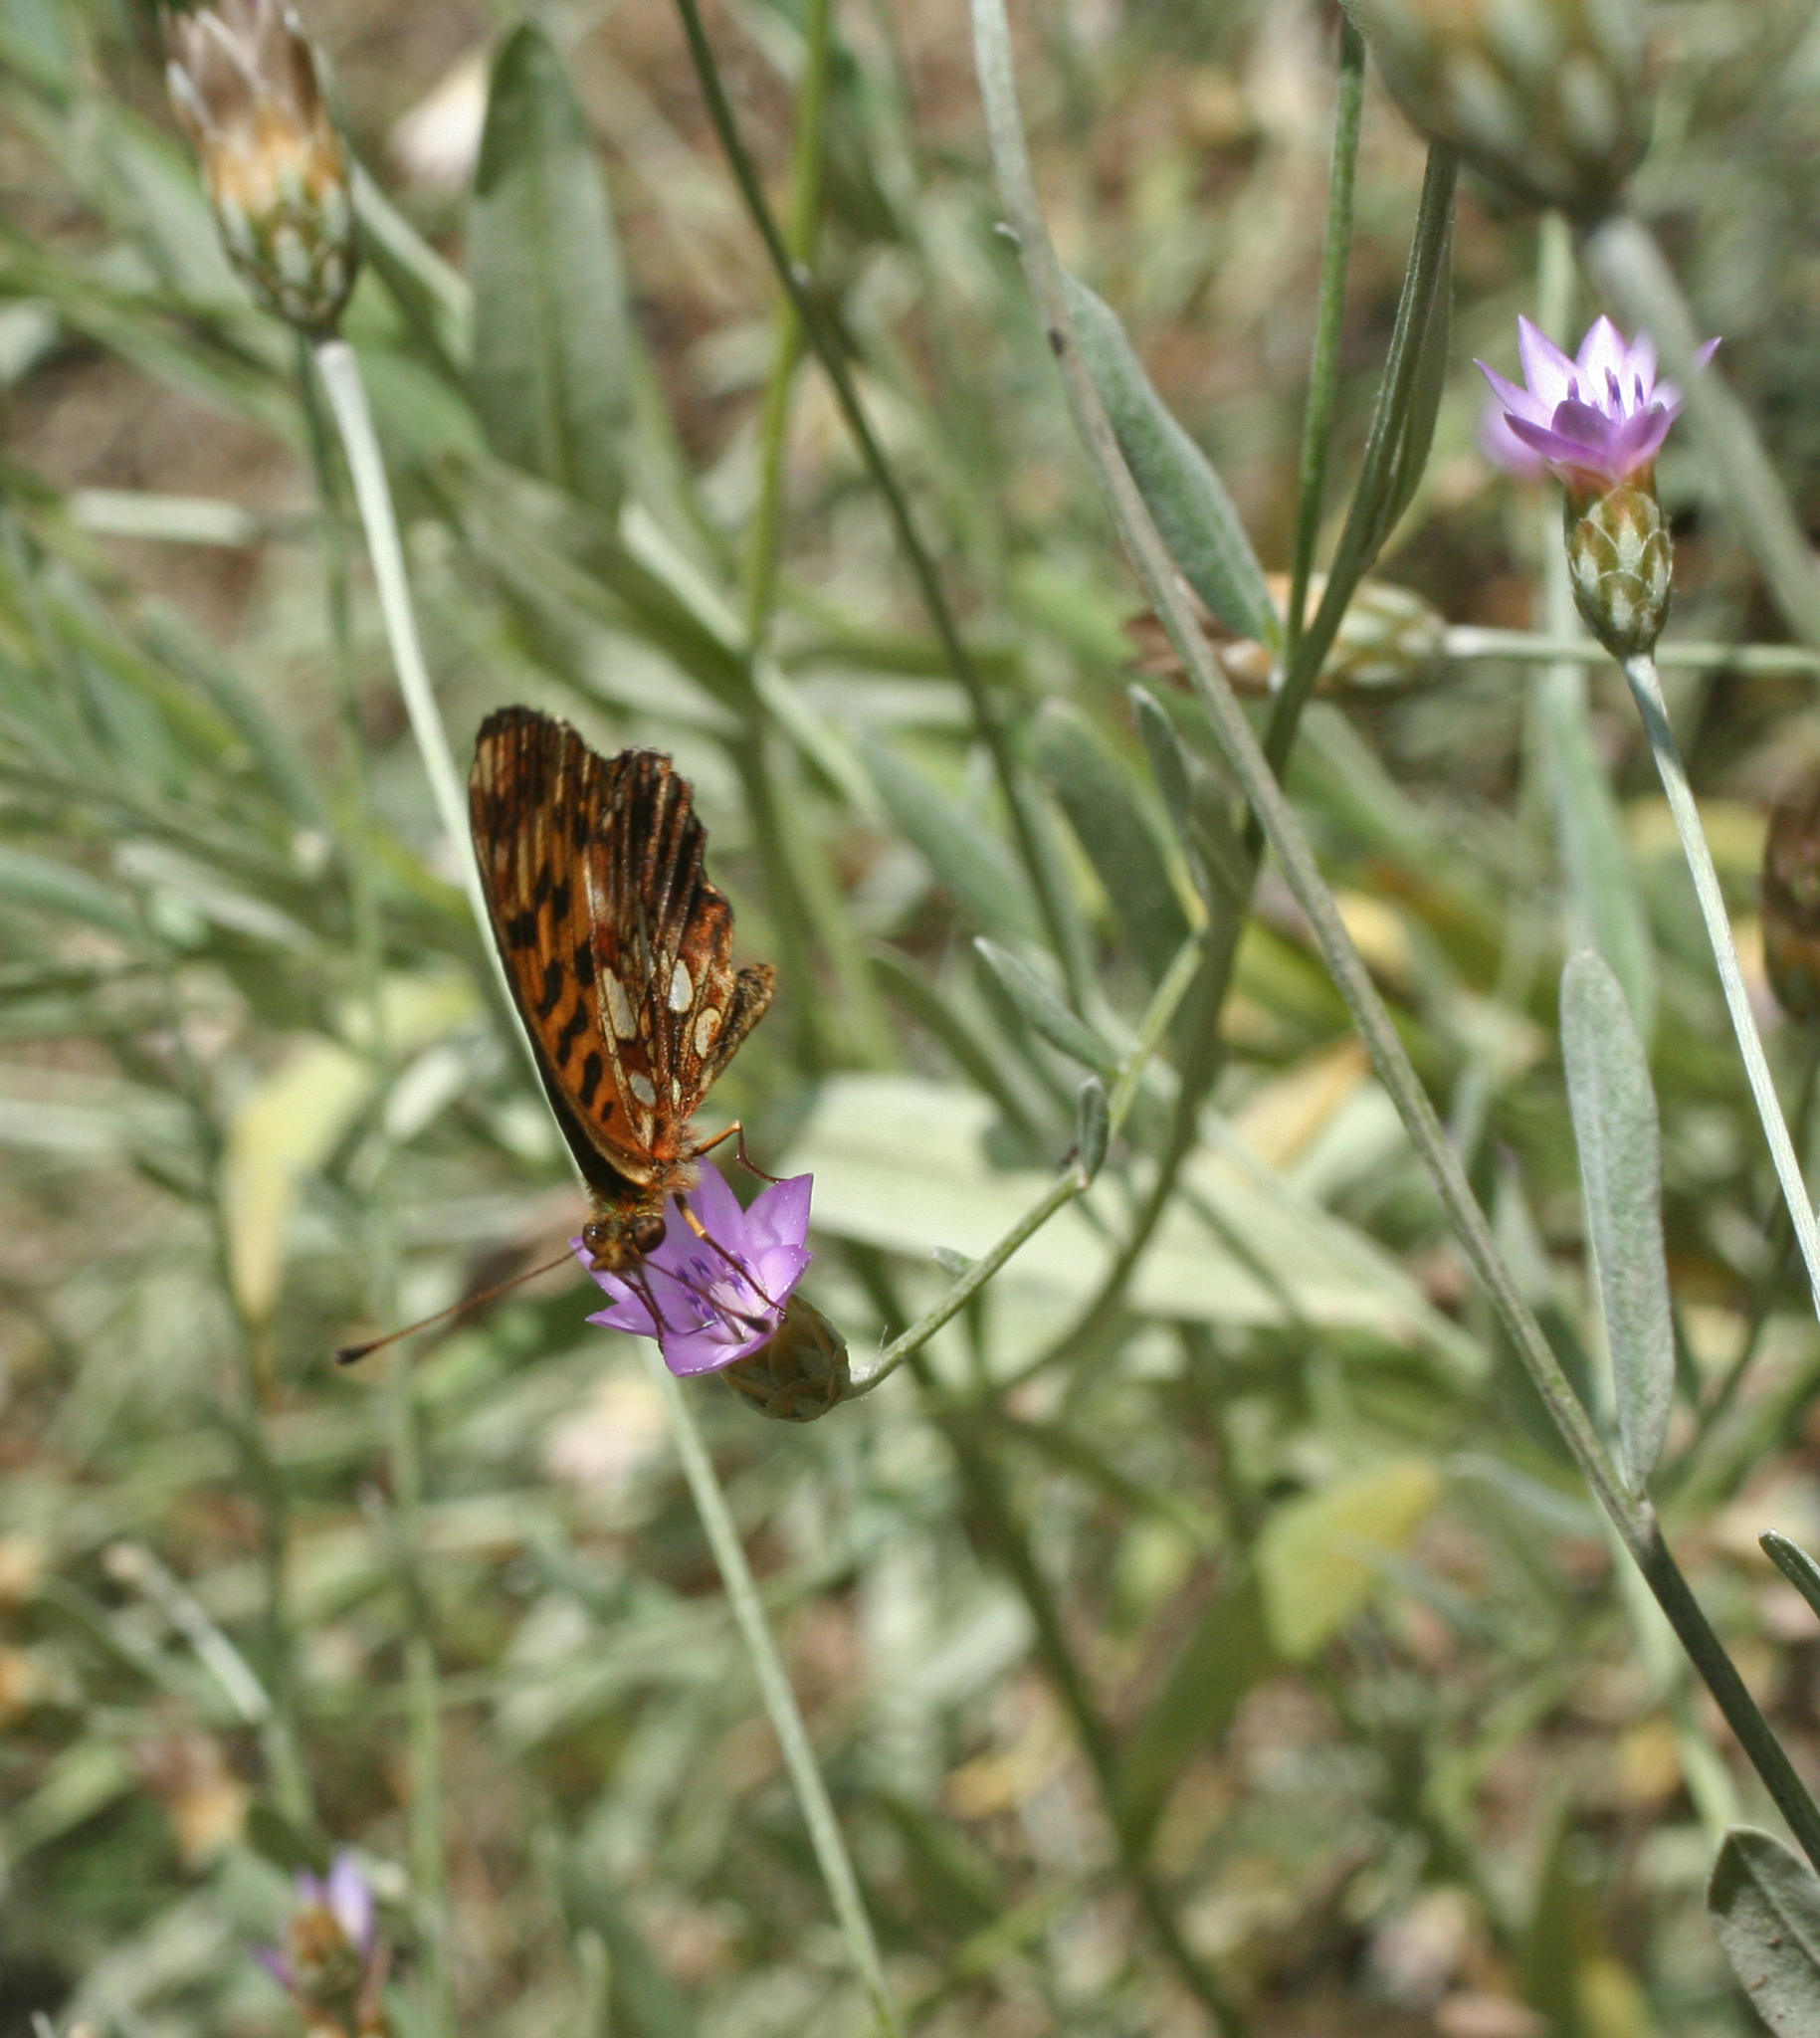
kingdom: Plantae
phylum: Tracheophyta
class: Magnoliopsida
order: Asterales
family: Asteraceae
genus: Xeranthemum
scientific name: Xeranthemum cylindraceum
